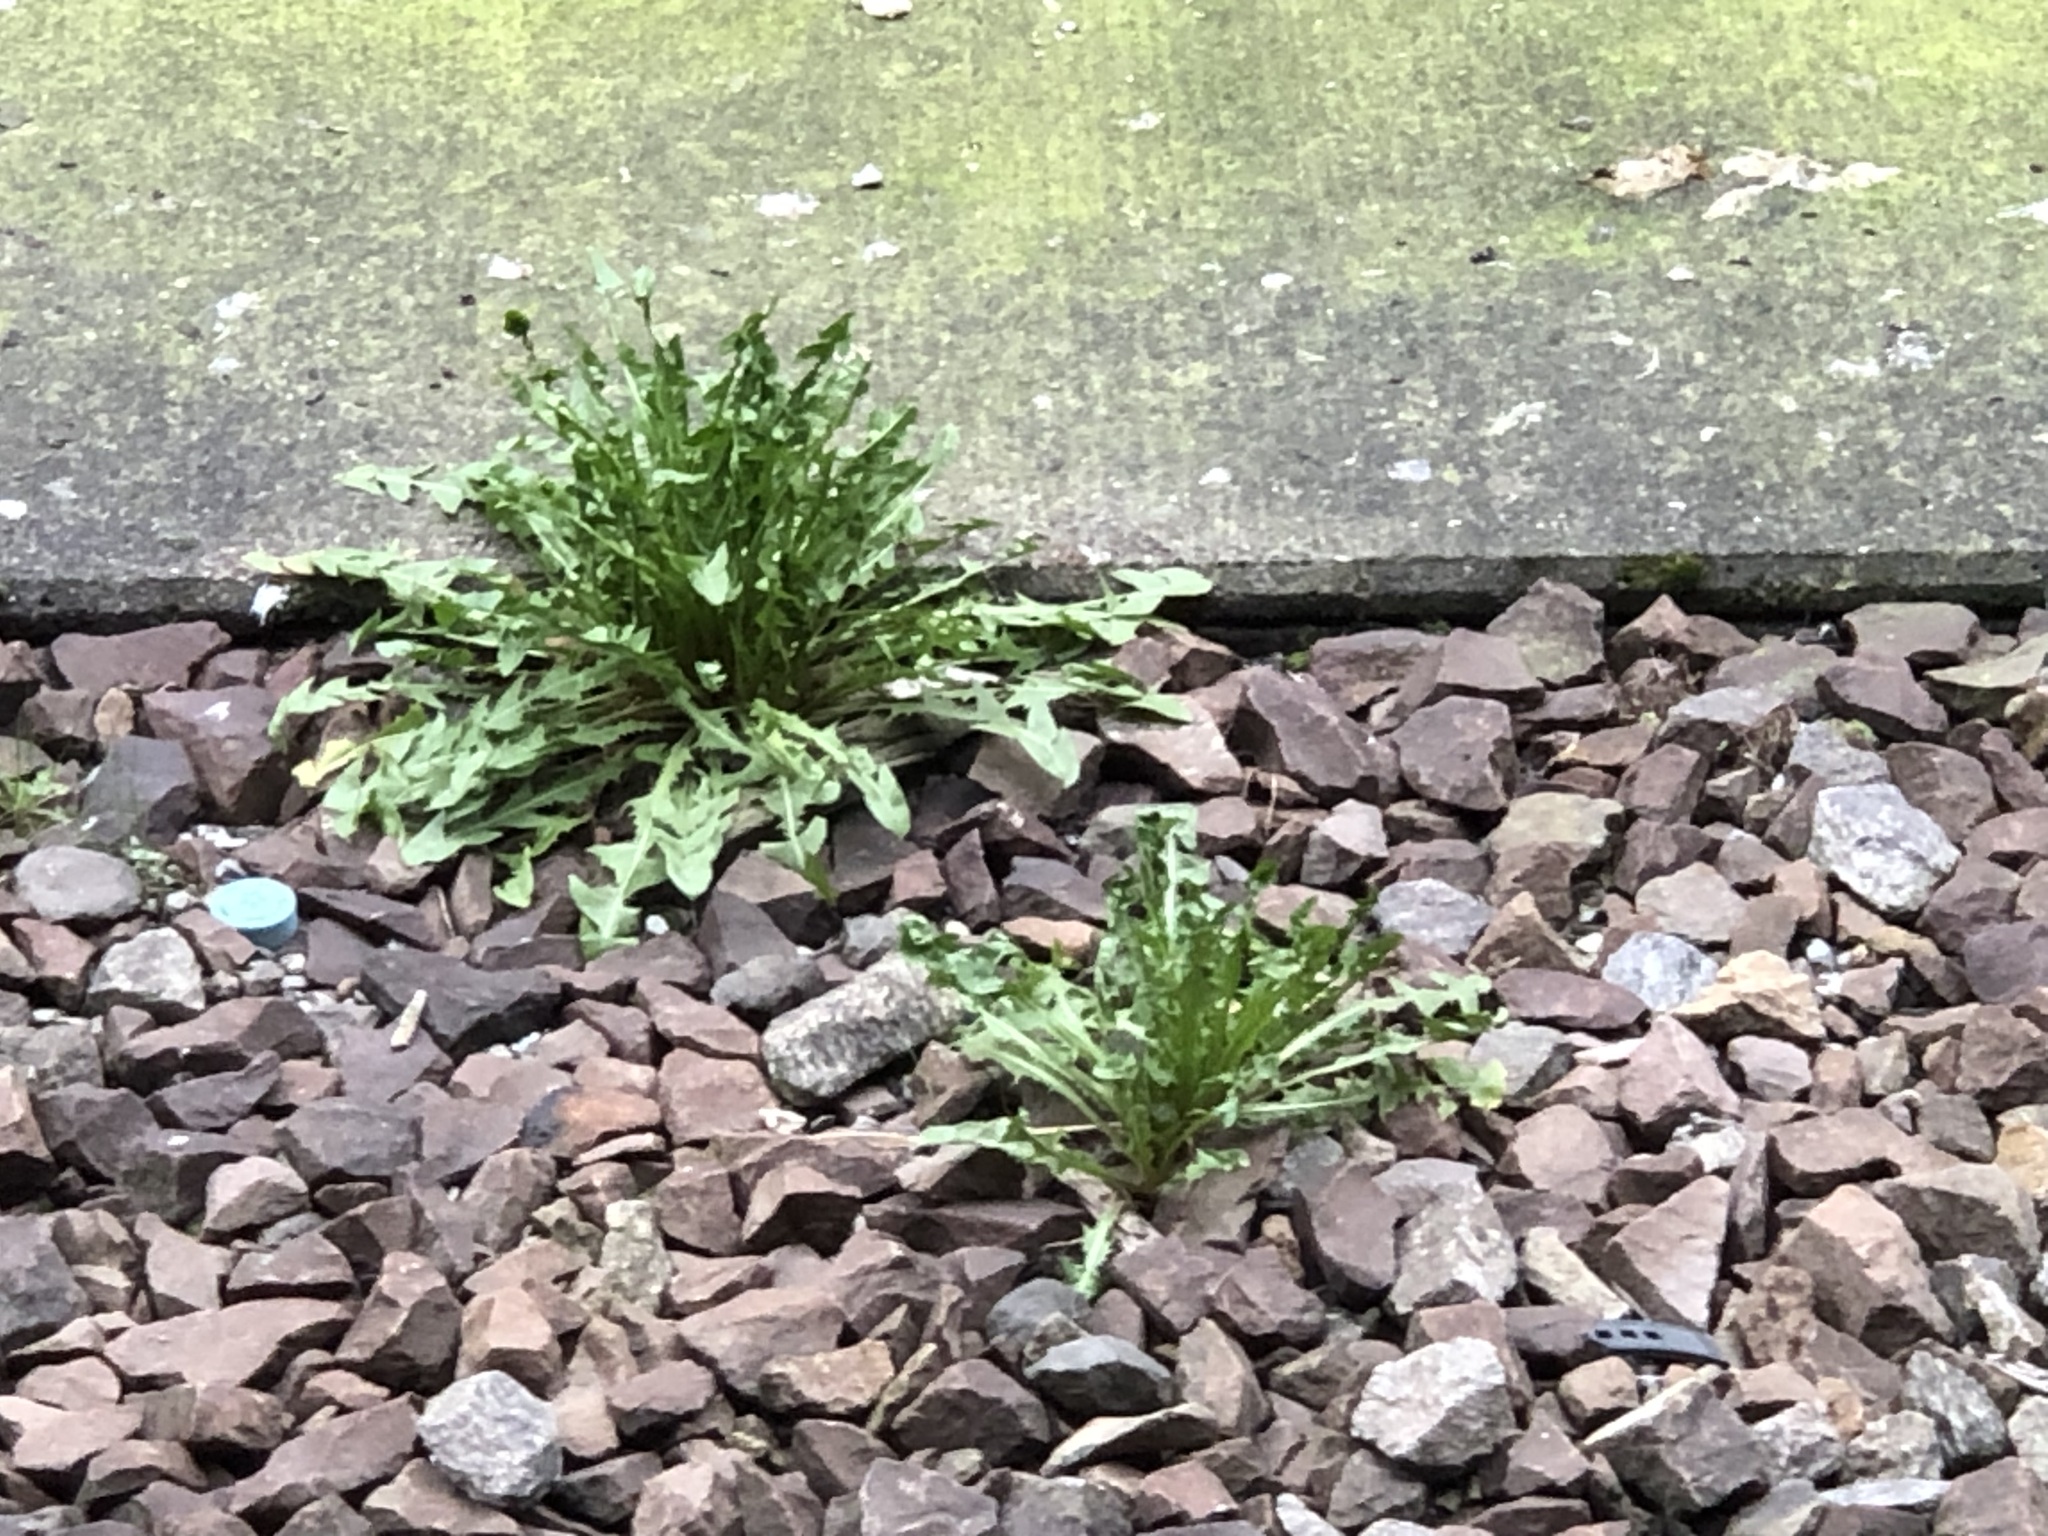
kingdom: Plantae
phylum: Tracheophyta
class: Magnoliopsida
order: Asterales
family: Asteraceae
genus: Taraxacum
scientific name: Taraxacum officinale
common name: Common dandelion
